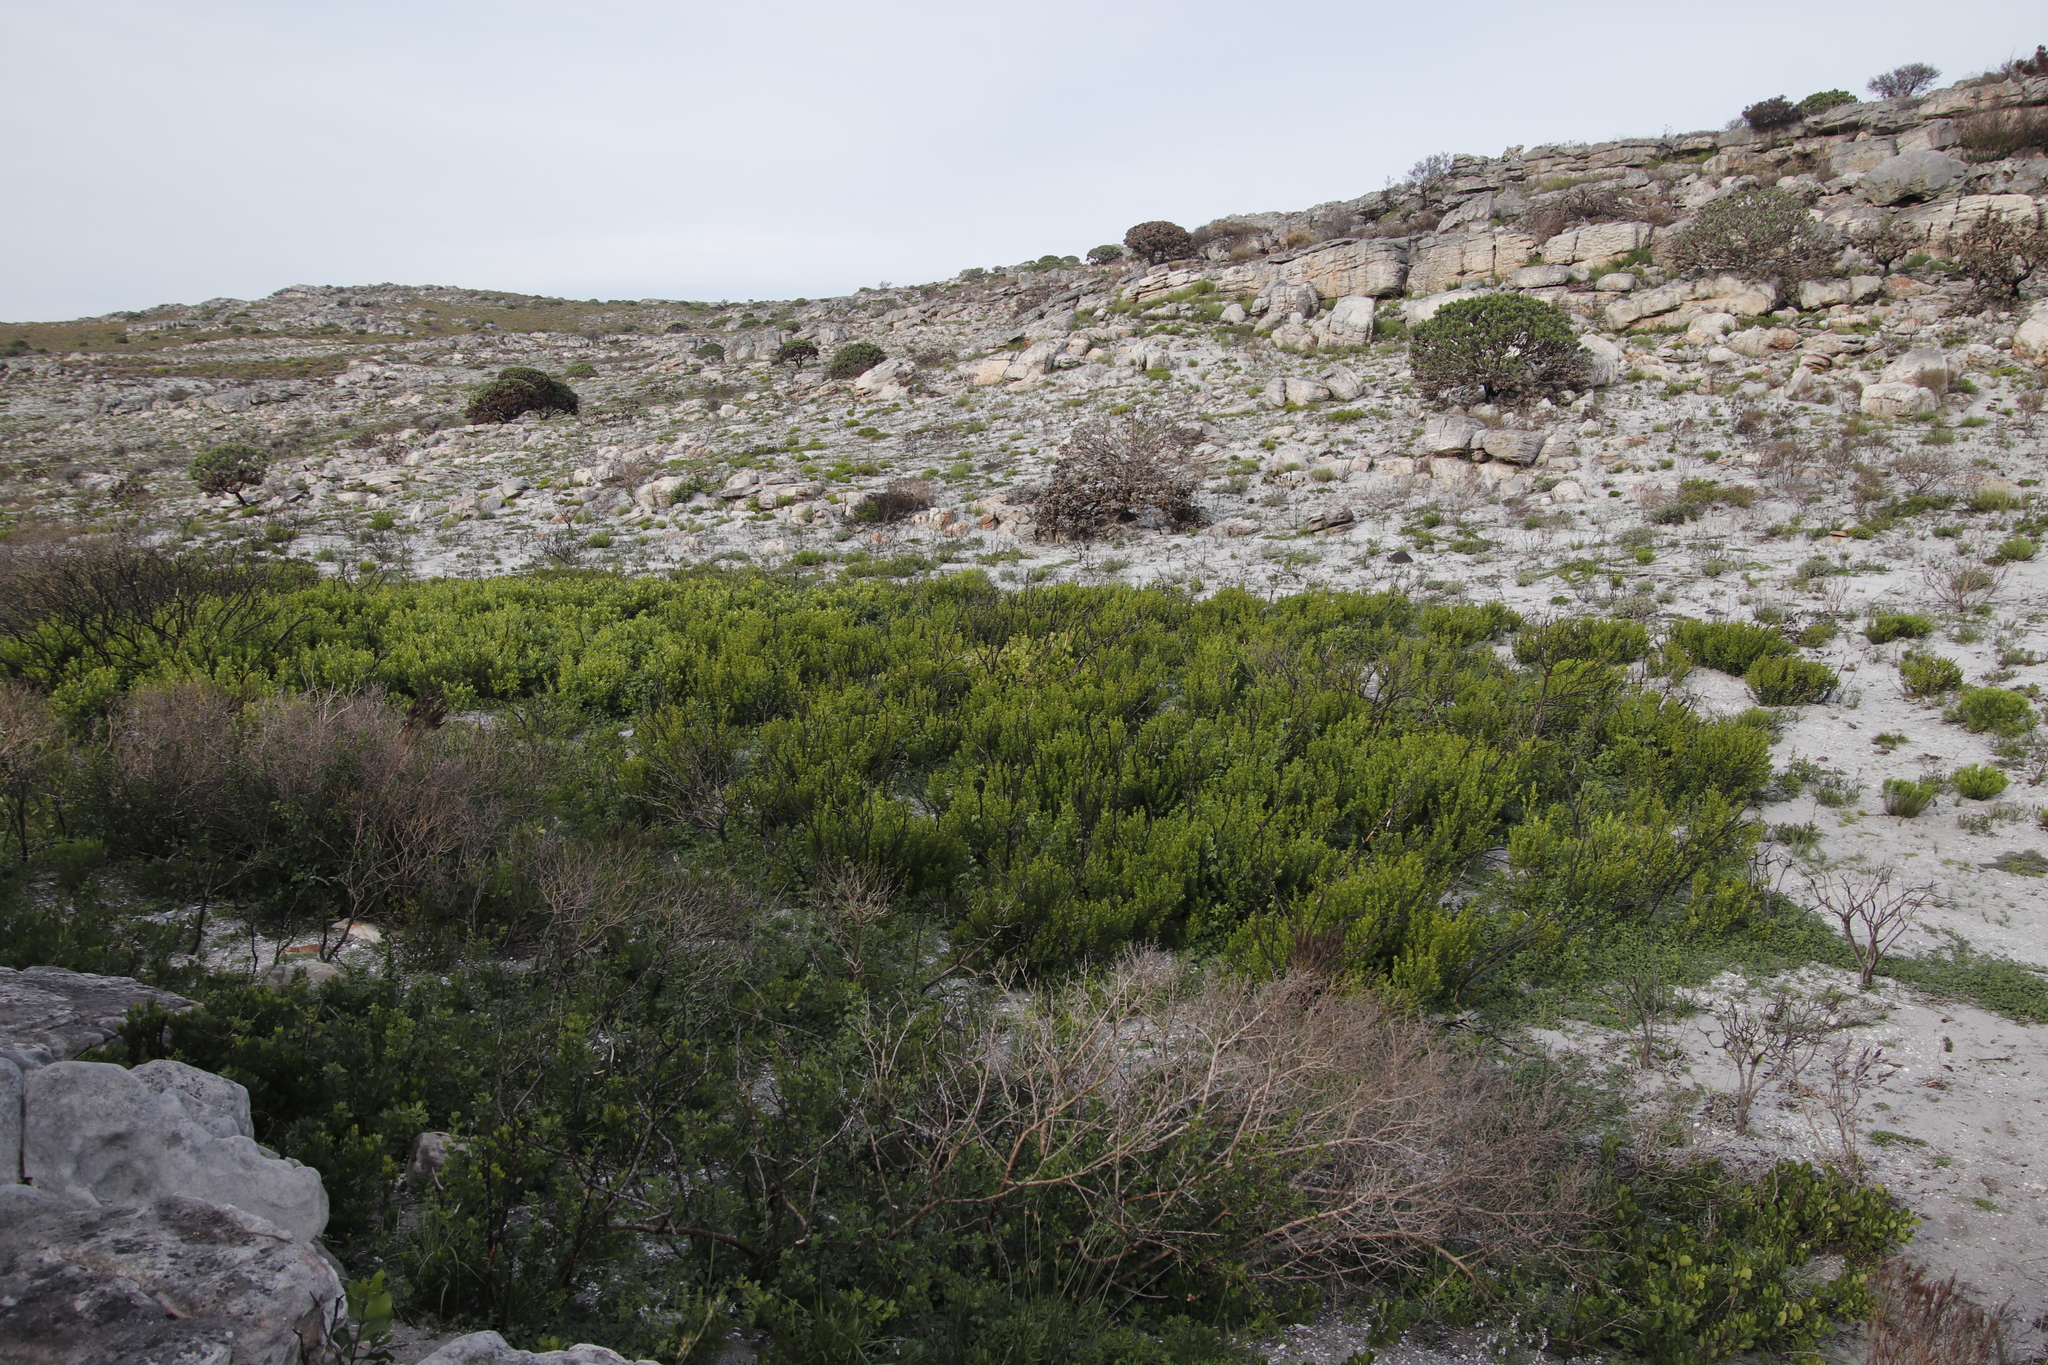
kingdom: Plantae
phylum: Tracheophyta
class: Magnoliopsida
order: Ericales
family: Ebenaceae
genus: Euclea
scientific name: Euclea racemosa
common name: Dune guarri
